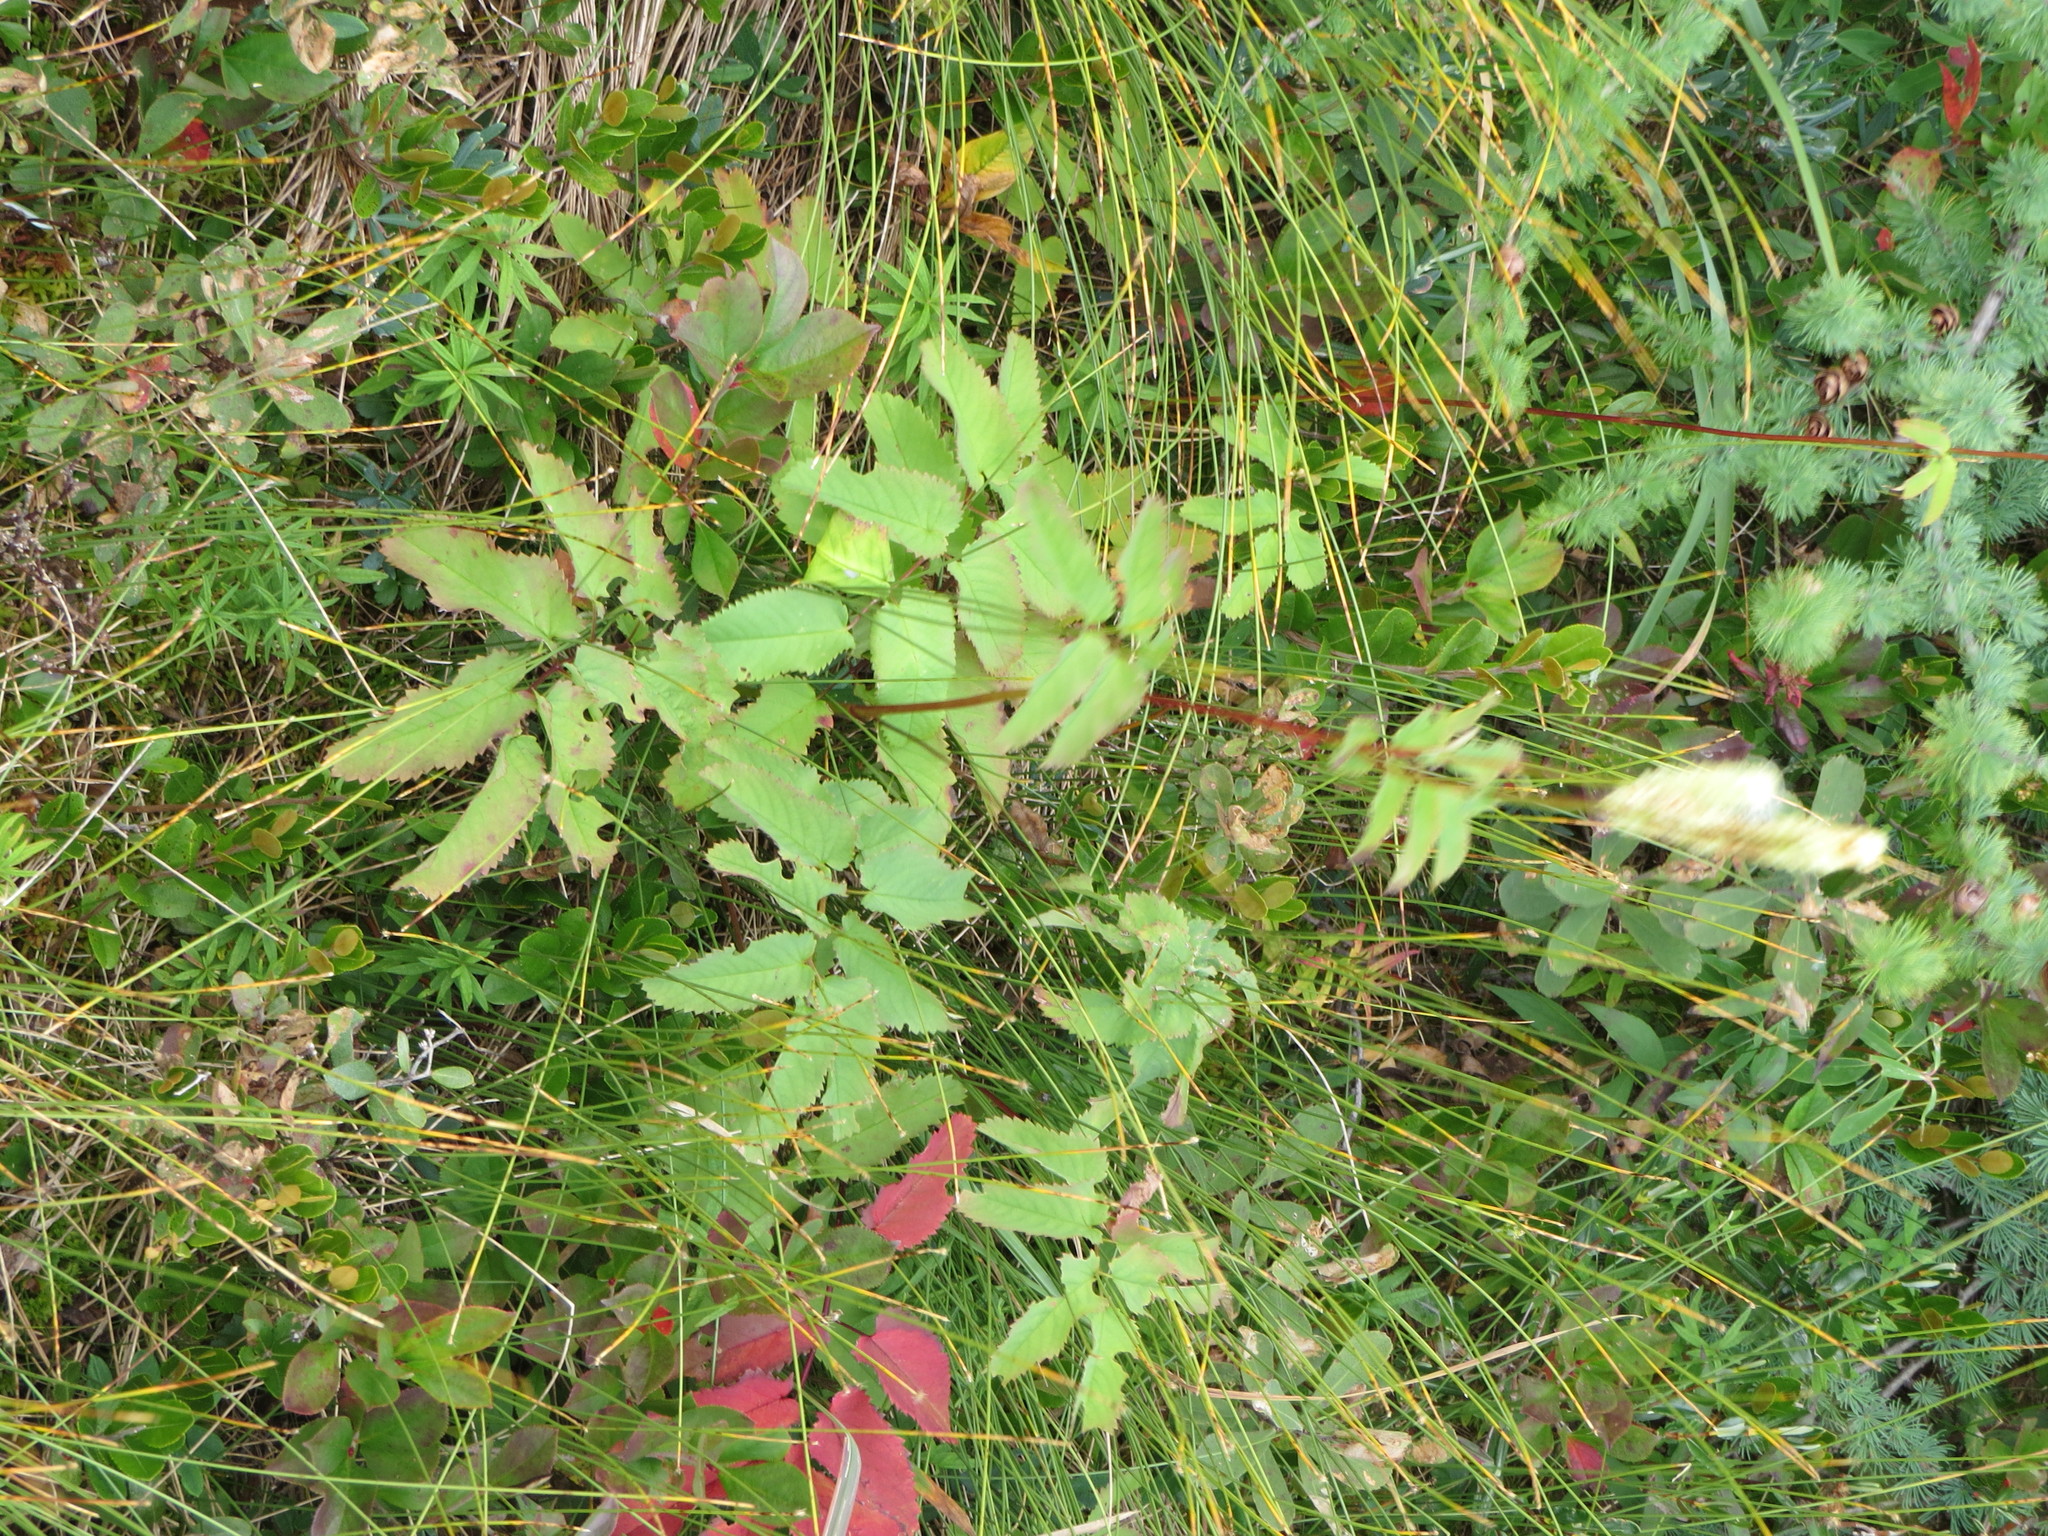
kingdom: Plantae
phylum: Tracheophyta
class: Magnoliopsida
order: Rosales
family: Rosaceae
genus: Sanguisorba
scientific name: Sanguisorba canadensis
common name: White burnet
